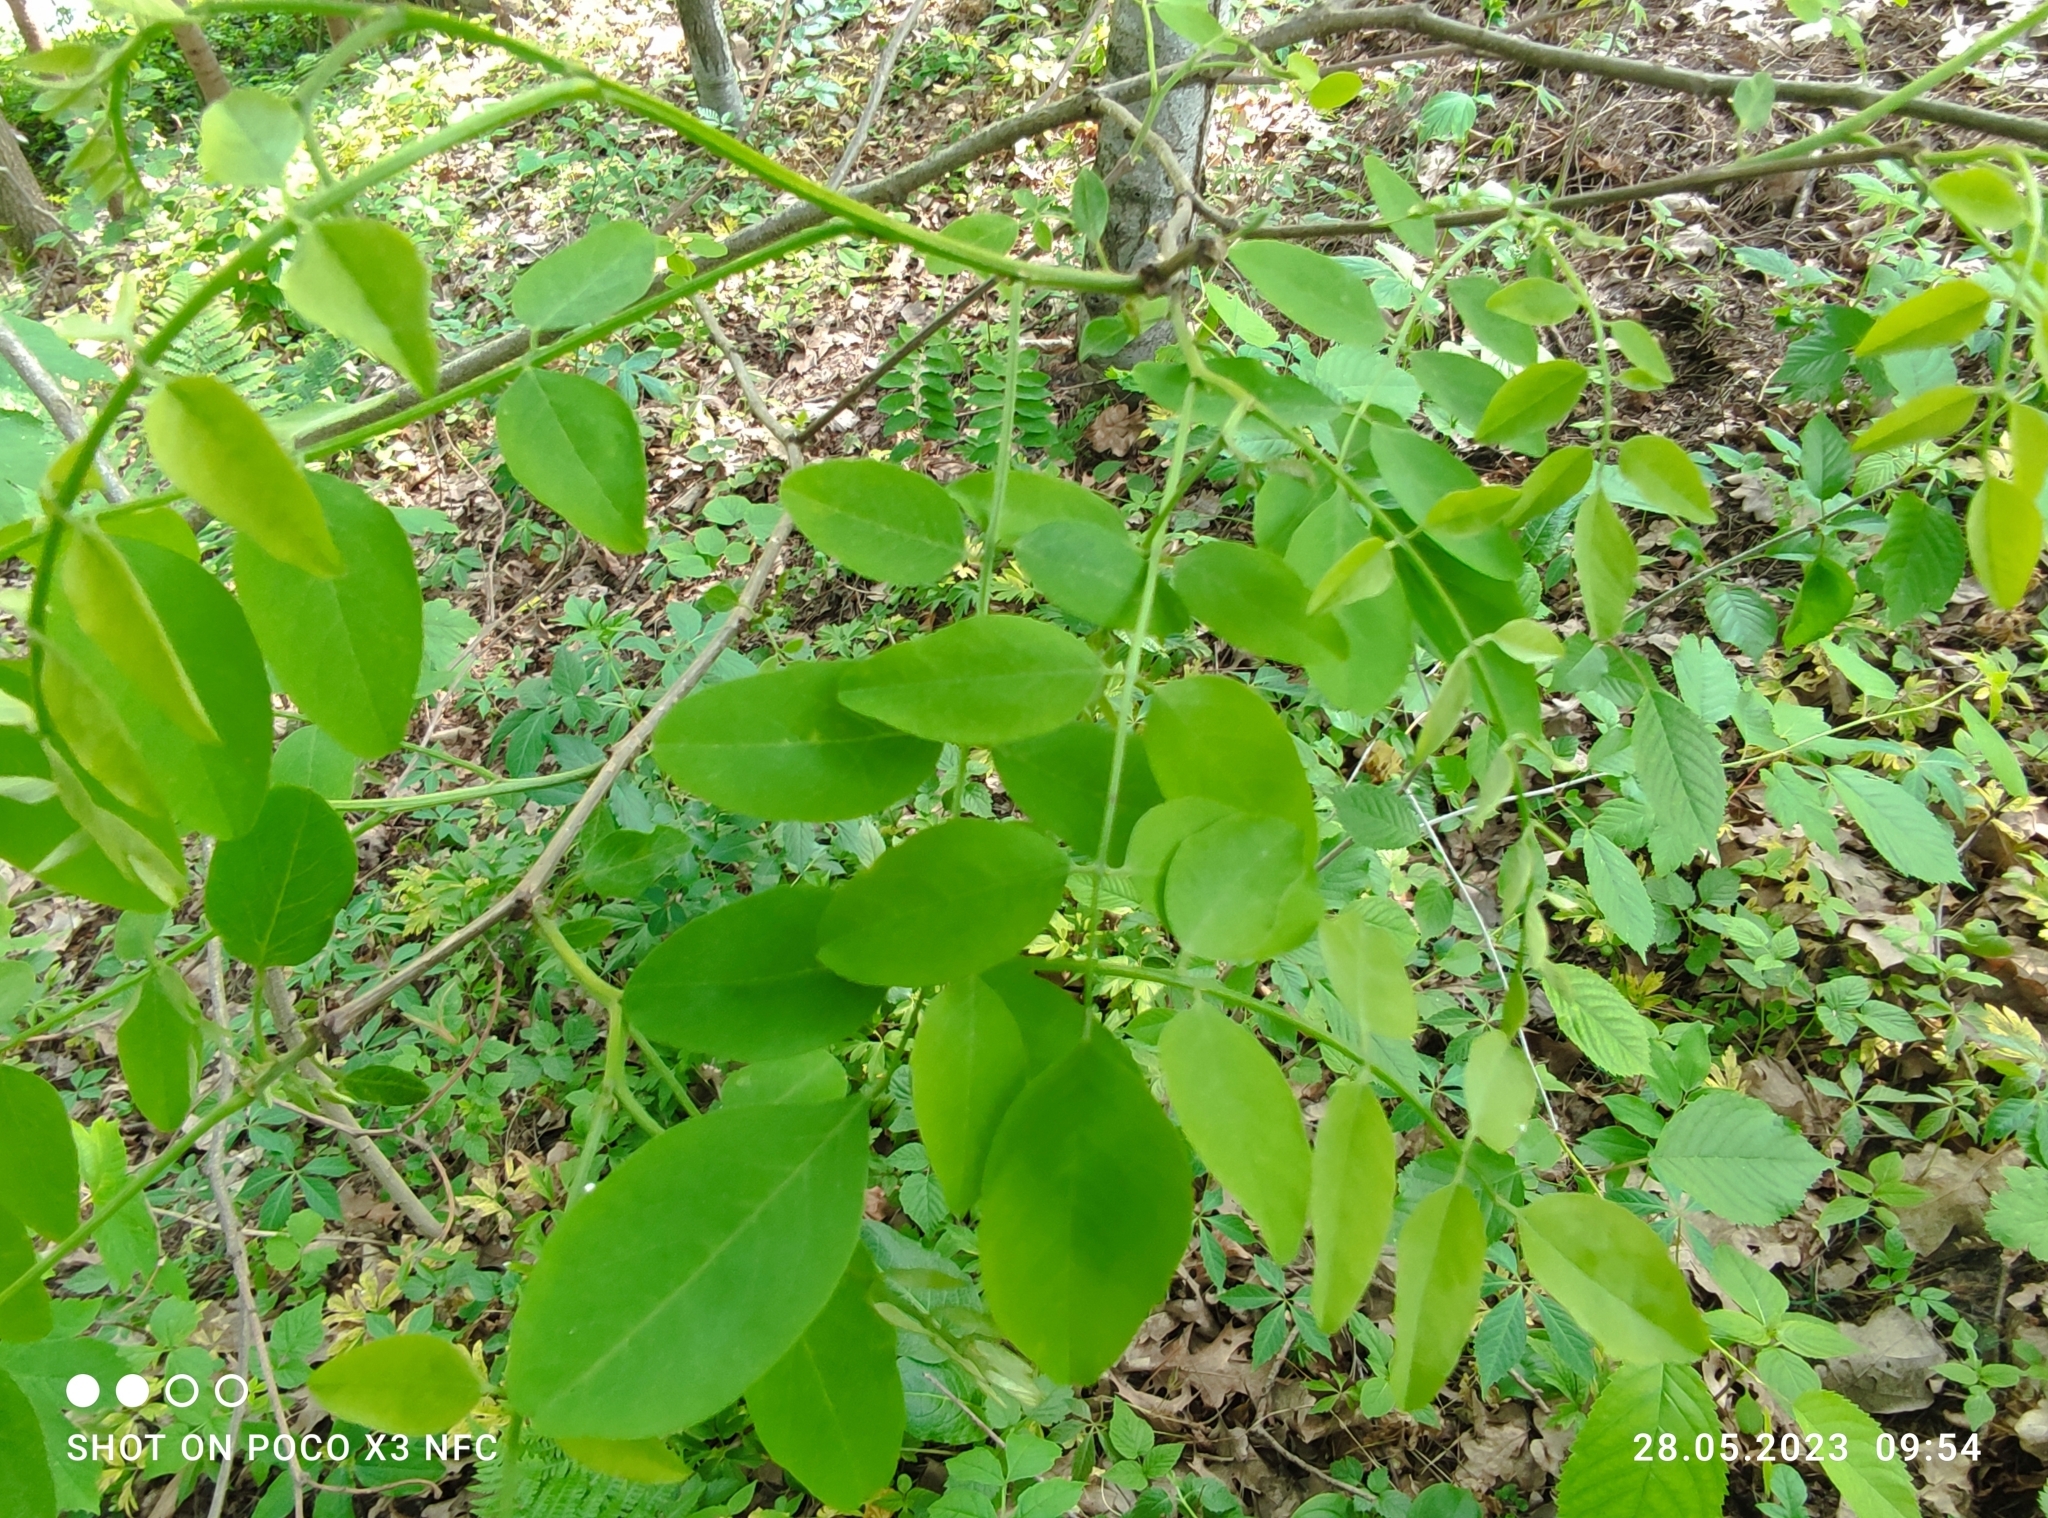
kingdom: Plantae
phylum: Tracheophyta
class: Magnoliopsida
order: Fabales
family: Fabaceae
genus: Robinia
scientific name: Robinia pseudoacacia
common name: Black locust
